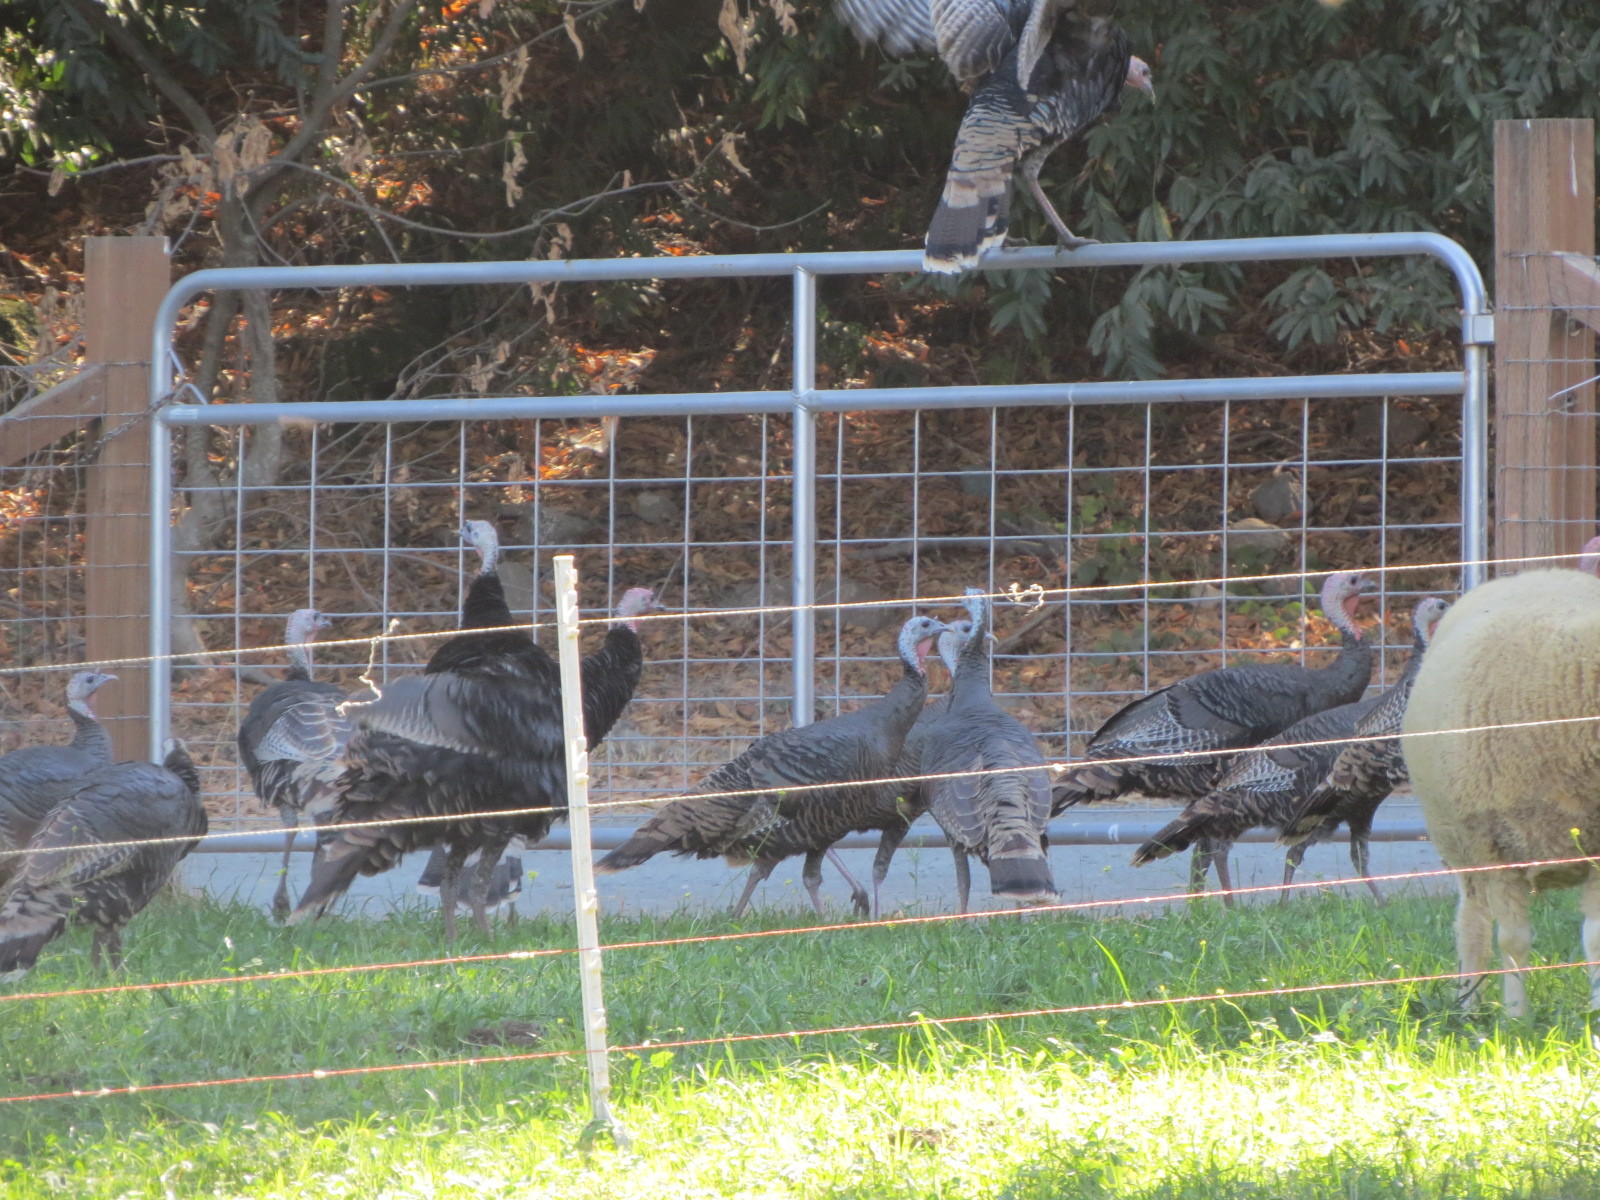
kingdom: Animalia
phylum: Chordata
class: Aves
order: Galliformes
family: Phasianidae
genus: Meleagris
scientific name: Meleagris gallopavo
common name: Wild turkey
